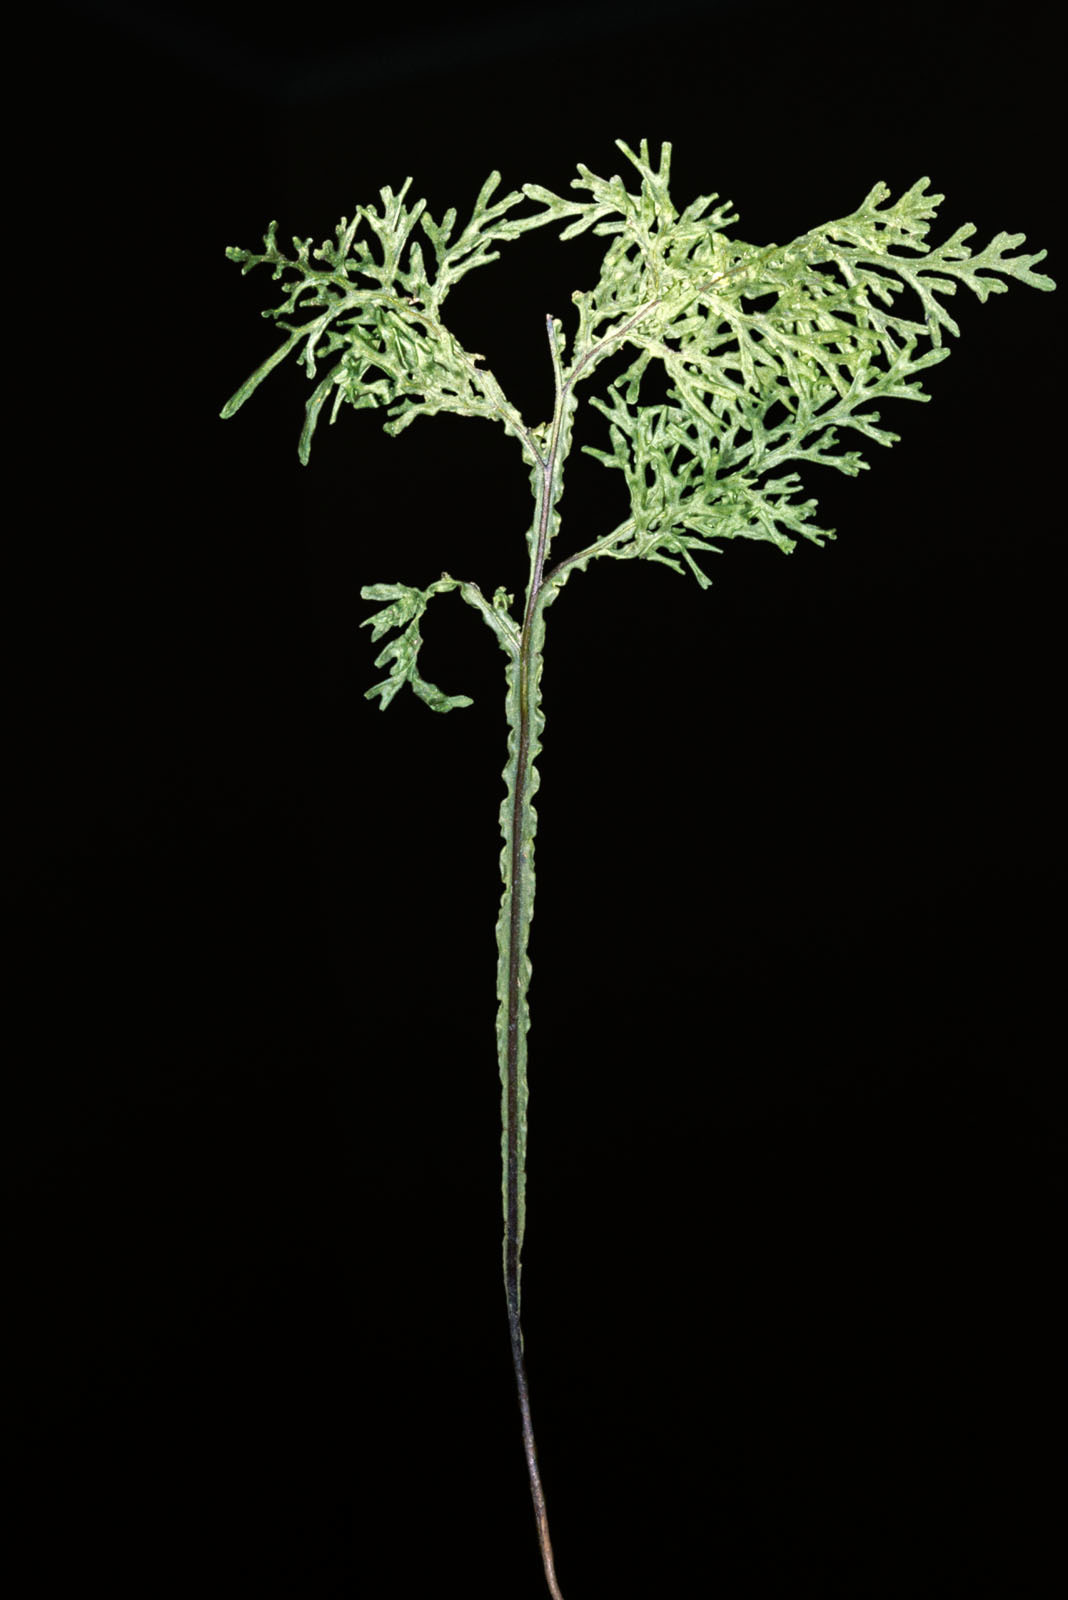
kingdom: Plantae
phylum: Tracheophyta
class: Polypodiopsida
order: Hymenophyllales
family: Hymenophyllaceae
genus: Hymenophyllum
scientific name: Hymenophyllum flexuosum
